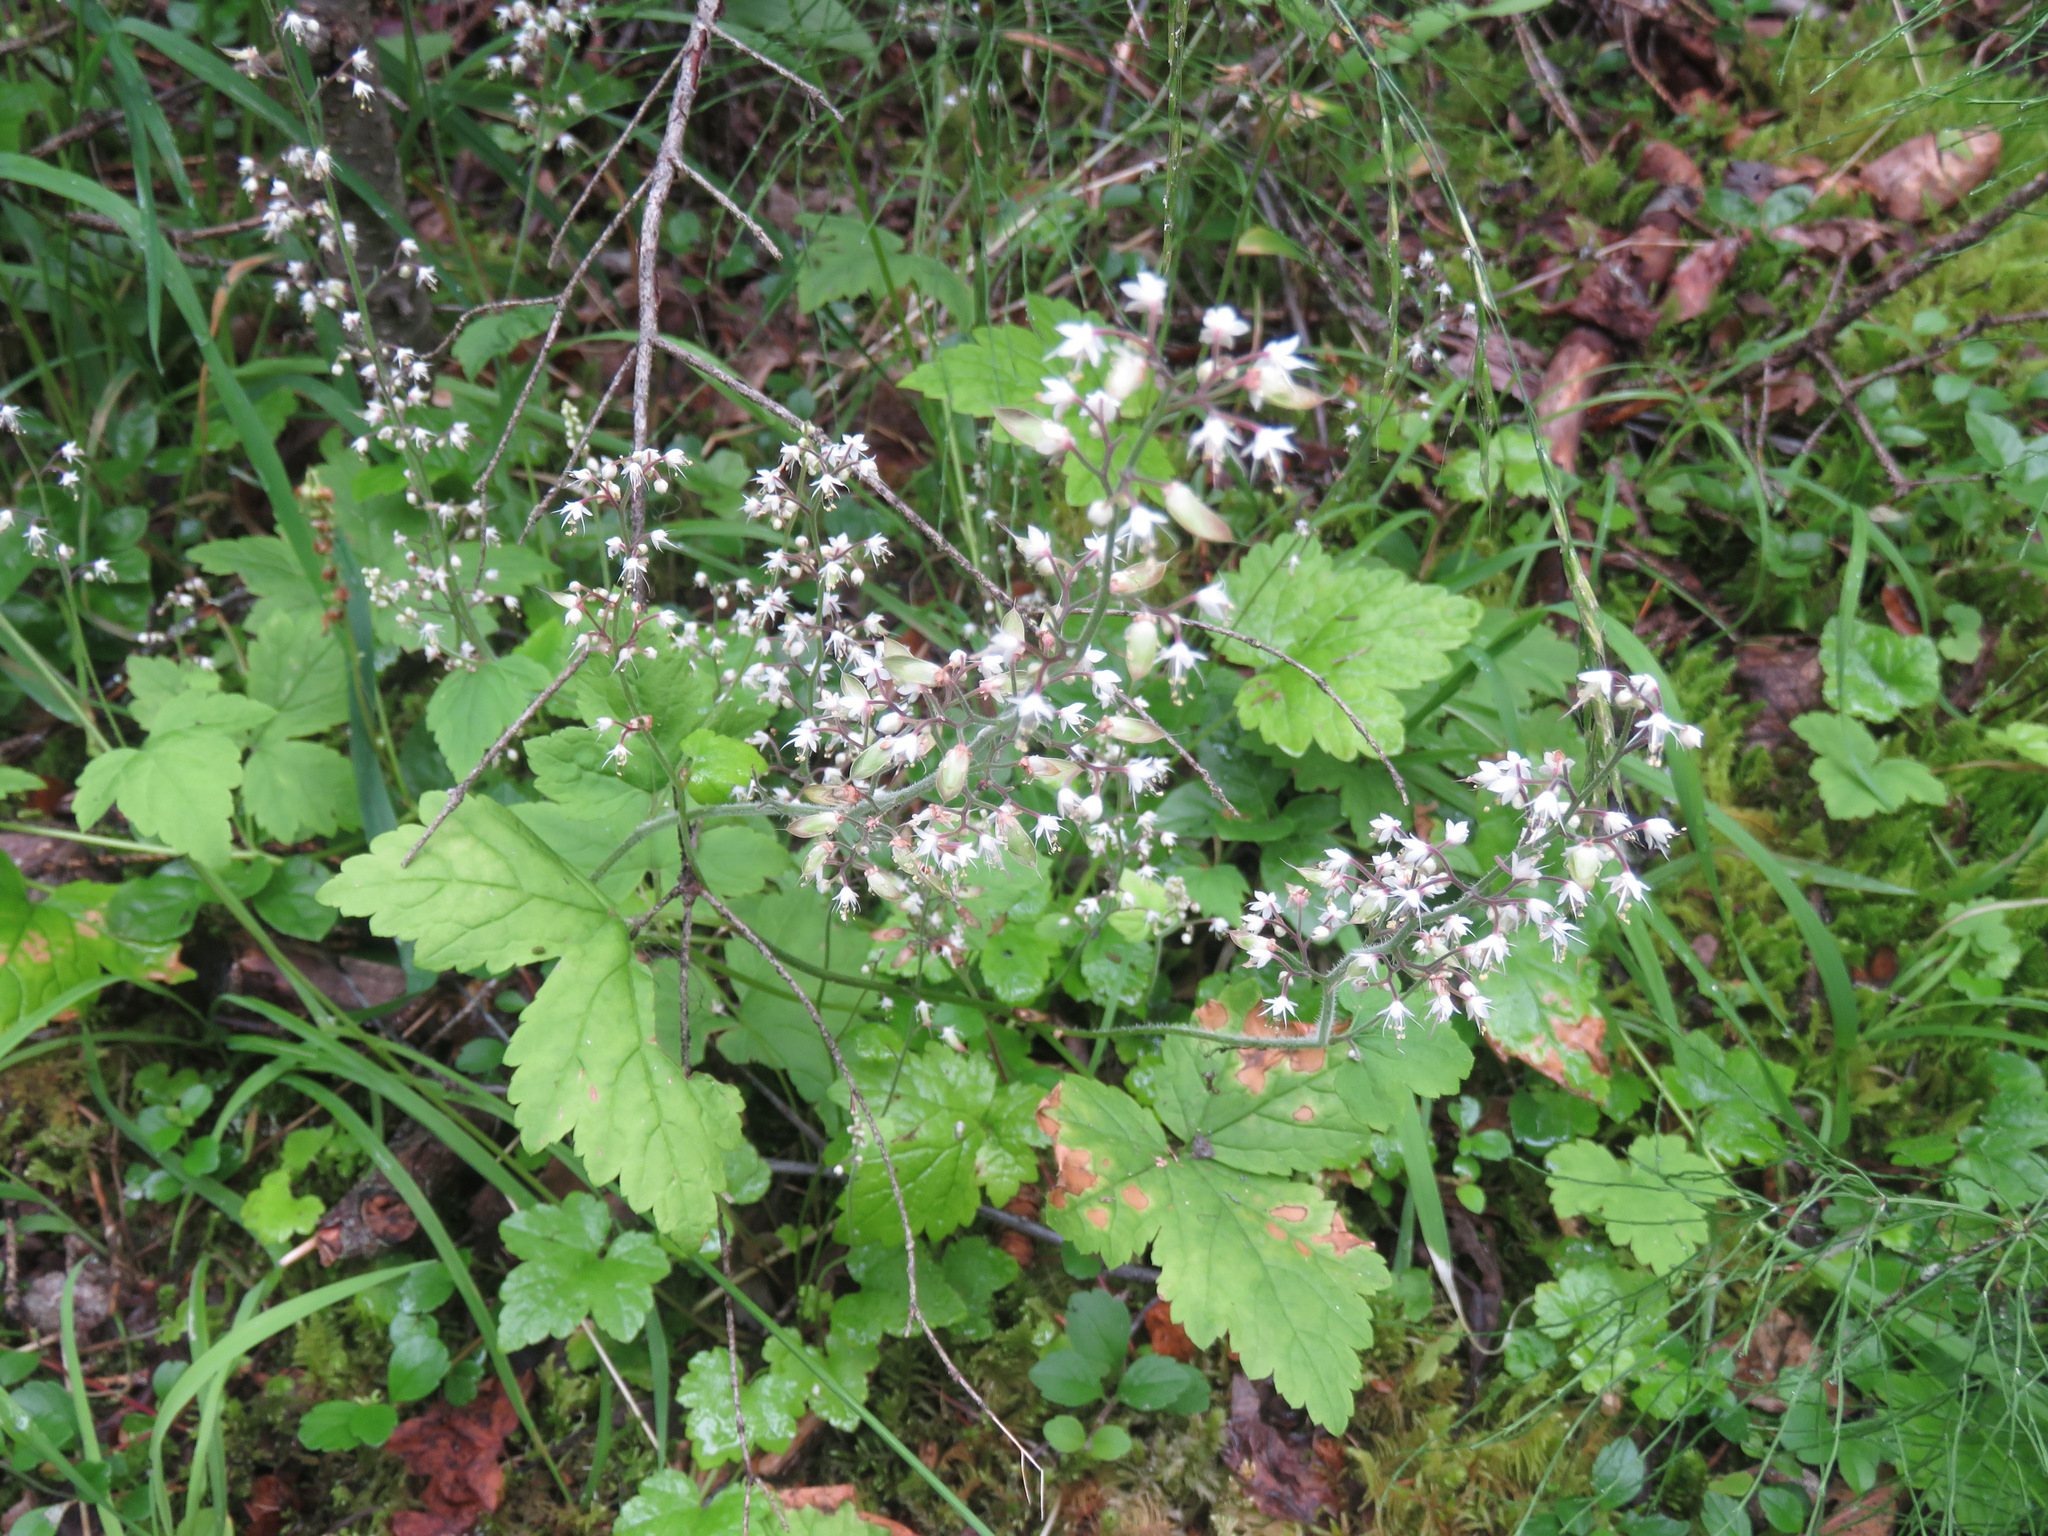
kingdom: Plantae
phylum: Tracheophyta
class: Magnoliopsida
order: Saxifragales
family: Saxifragaceae
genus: Tiarella
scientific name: Tiarella trifoliata
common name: Sugar-scoop
